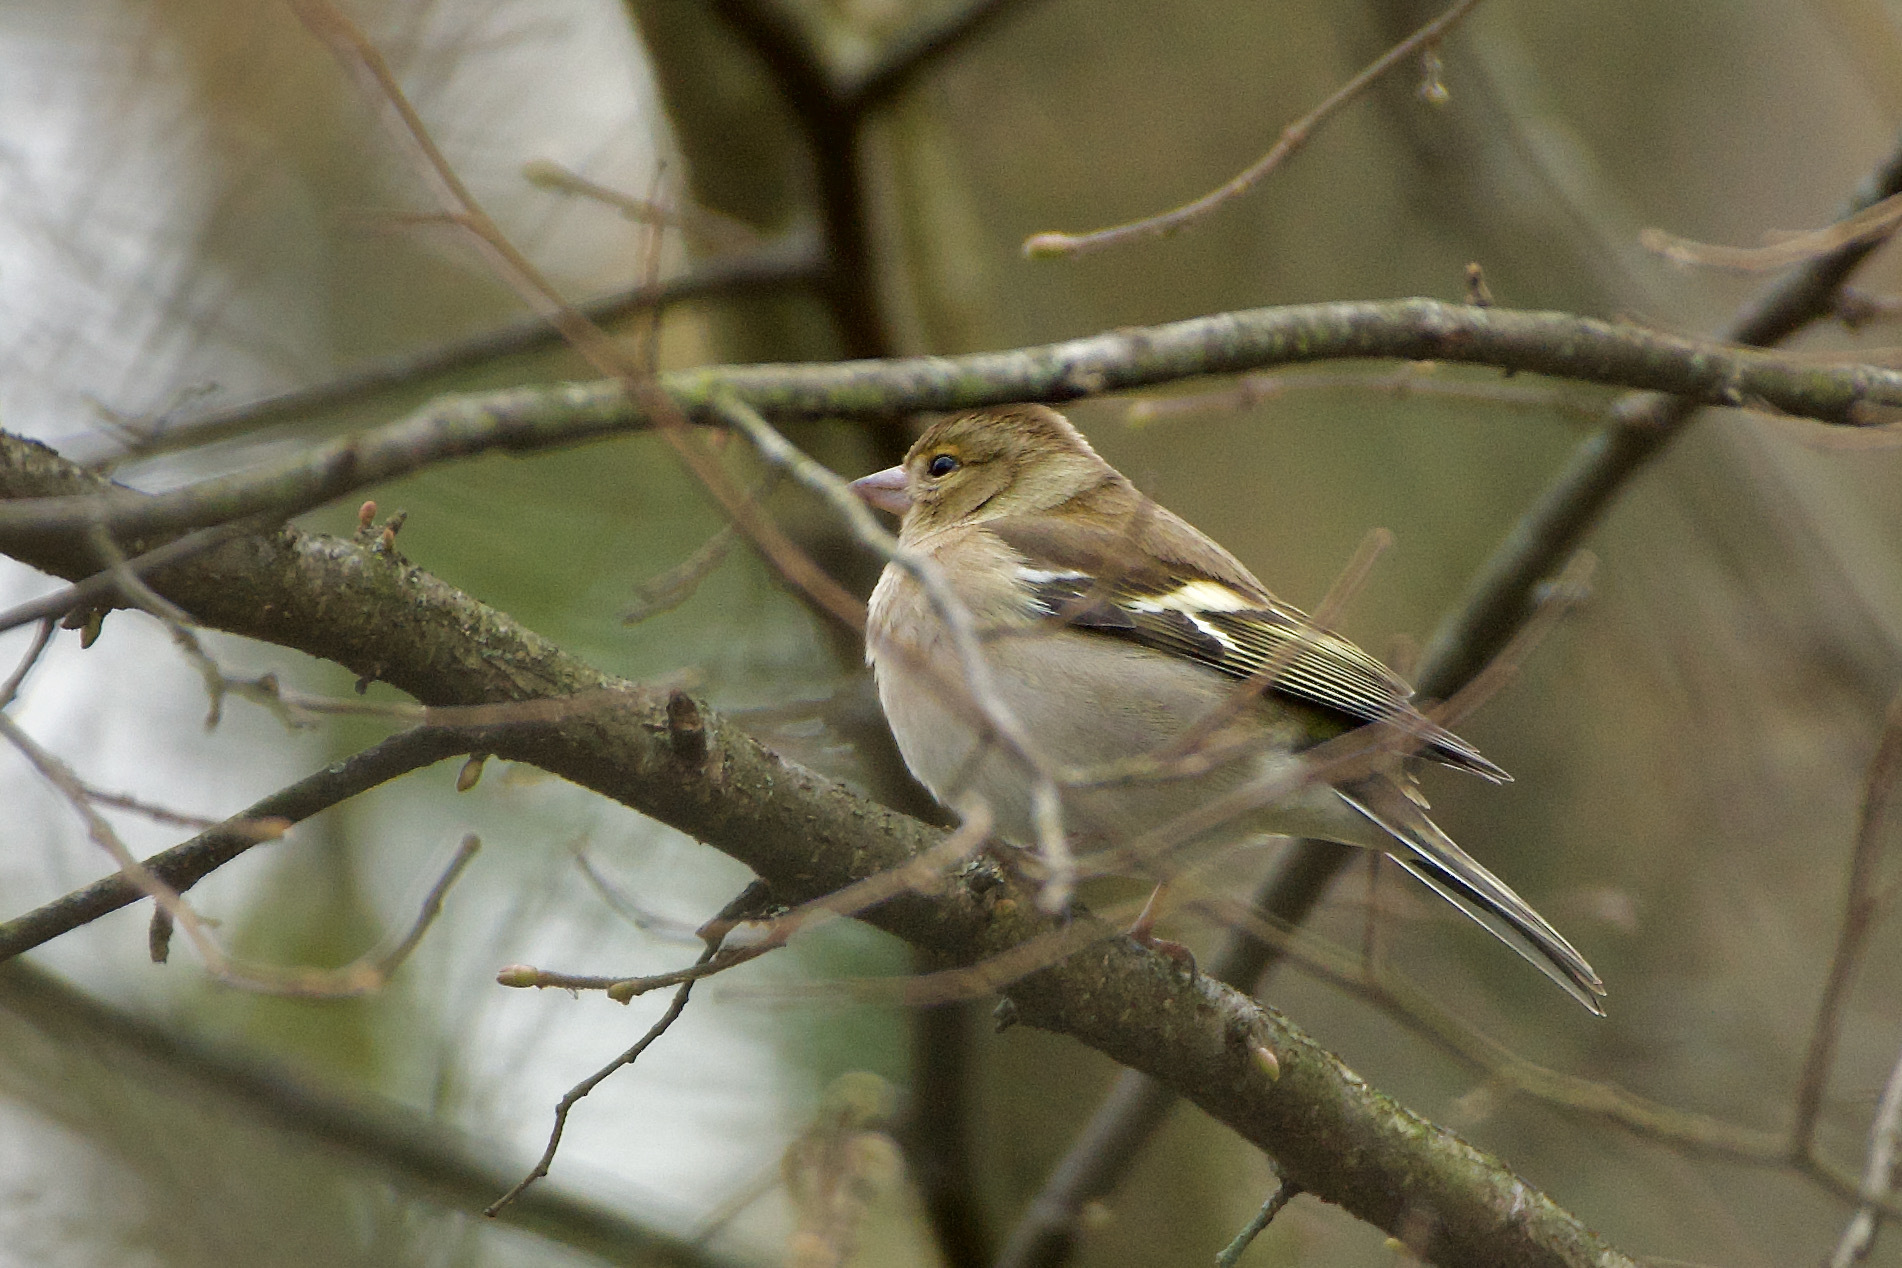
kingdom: Animalia
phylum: Chordata
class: Aves
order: Passeriformes
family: Fringillidae
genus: Fringilla
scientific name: Fringilla coelebs
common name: Common chaffinch
